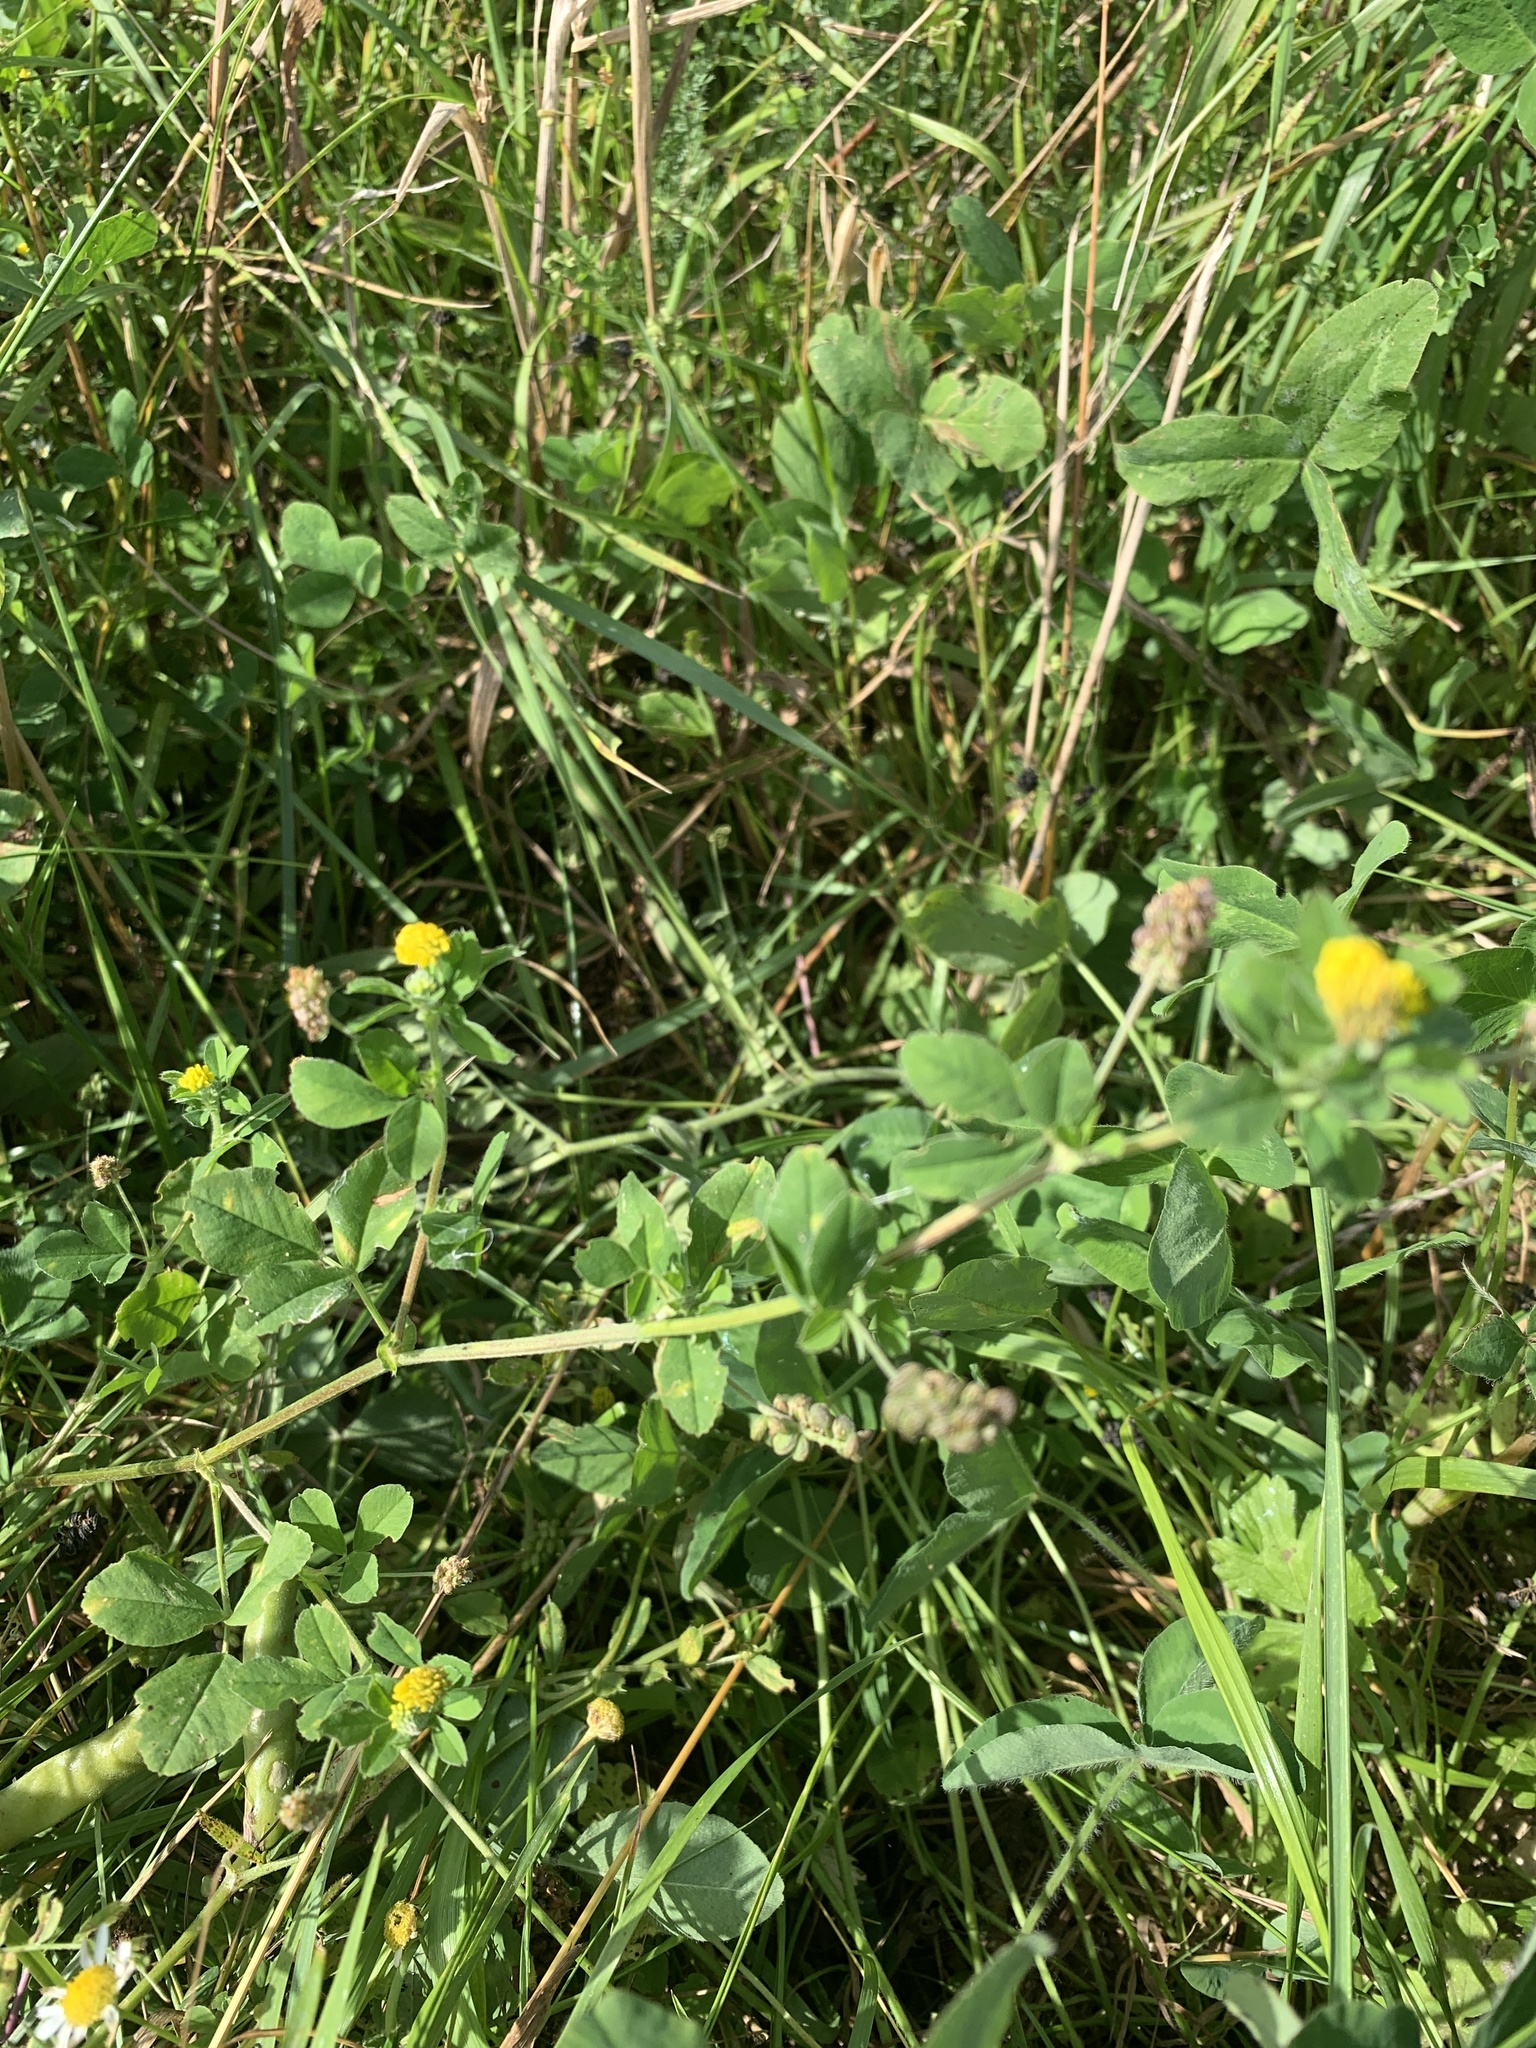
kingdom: Plantae
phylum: Tracheophyta
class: Magnoliopsida
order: Fabales
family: Fabaceae
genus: Medicago
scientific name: Medicago lupulina
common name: Black medick
